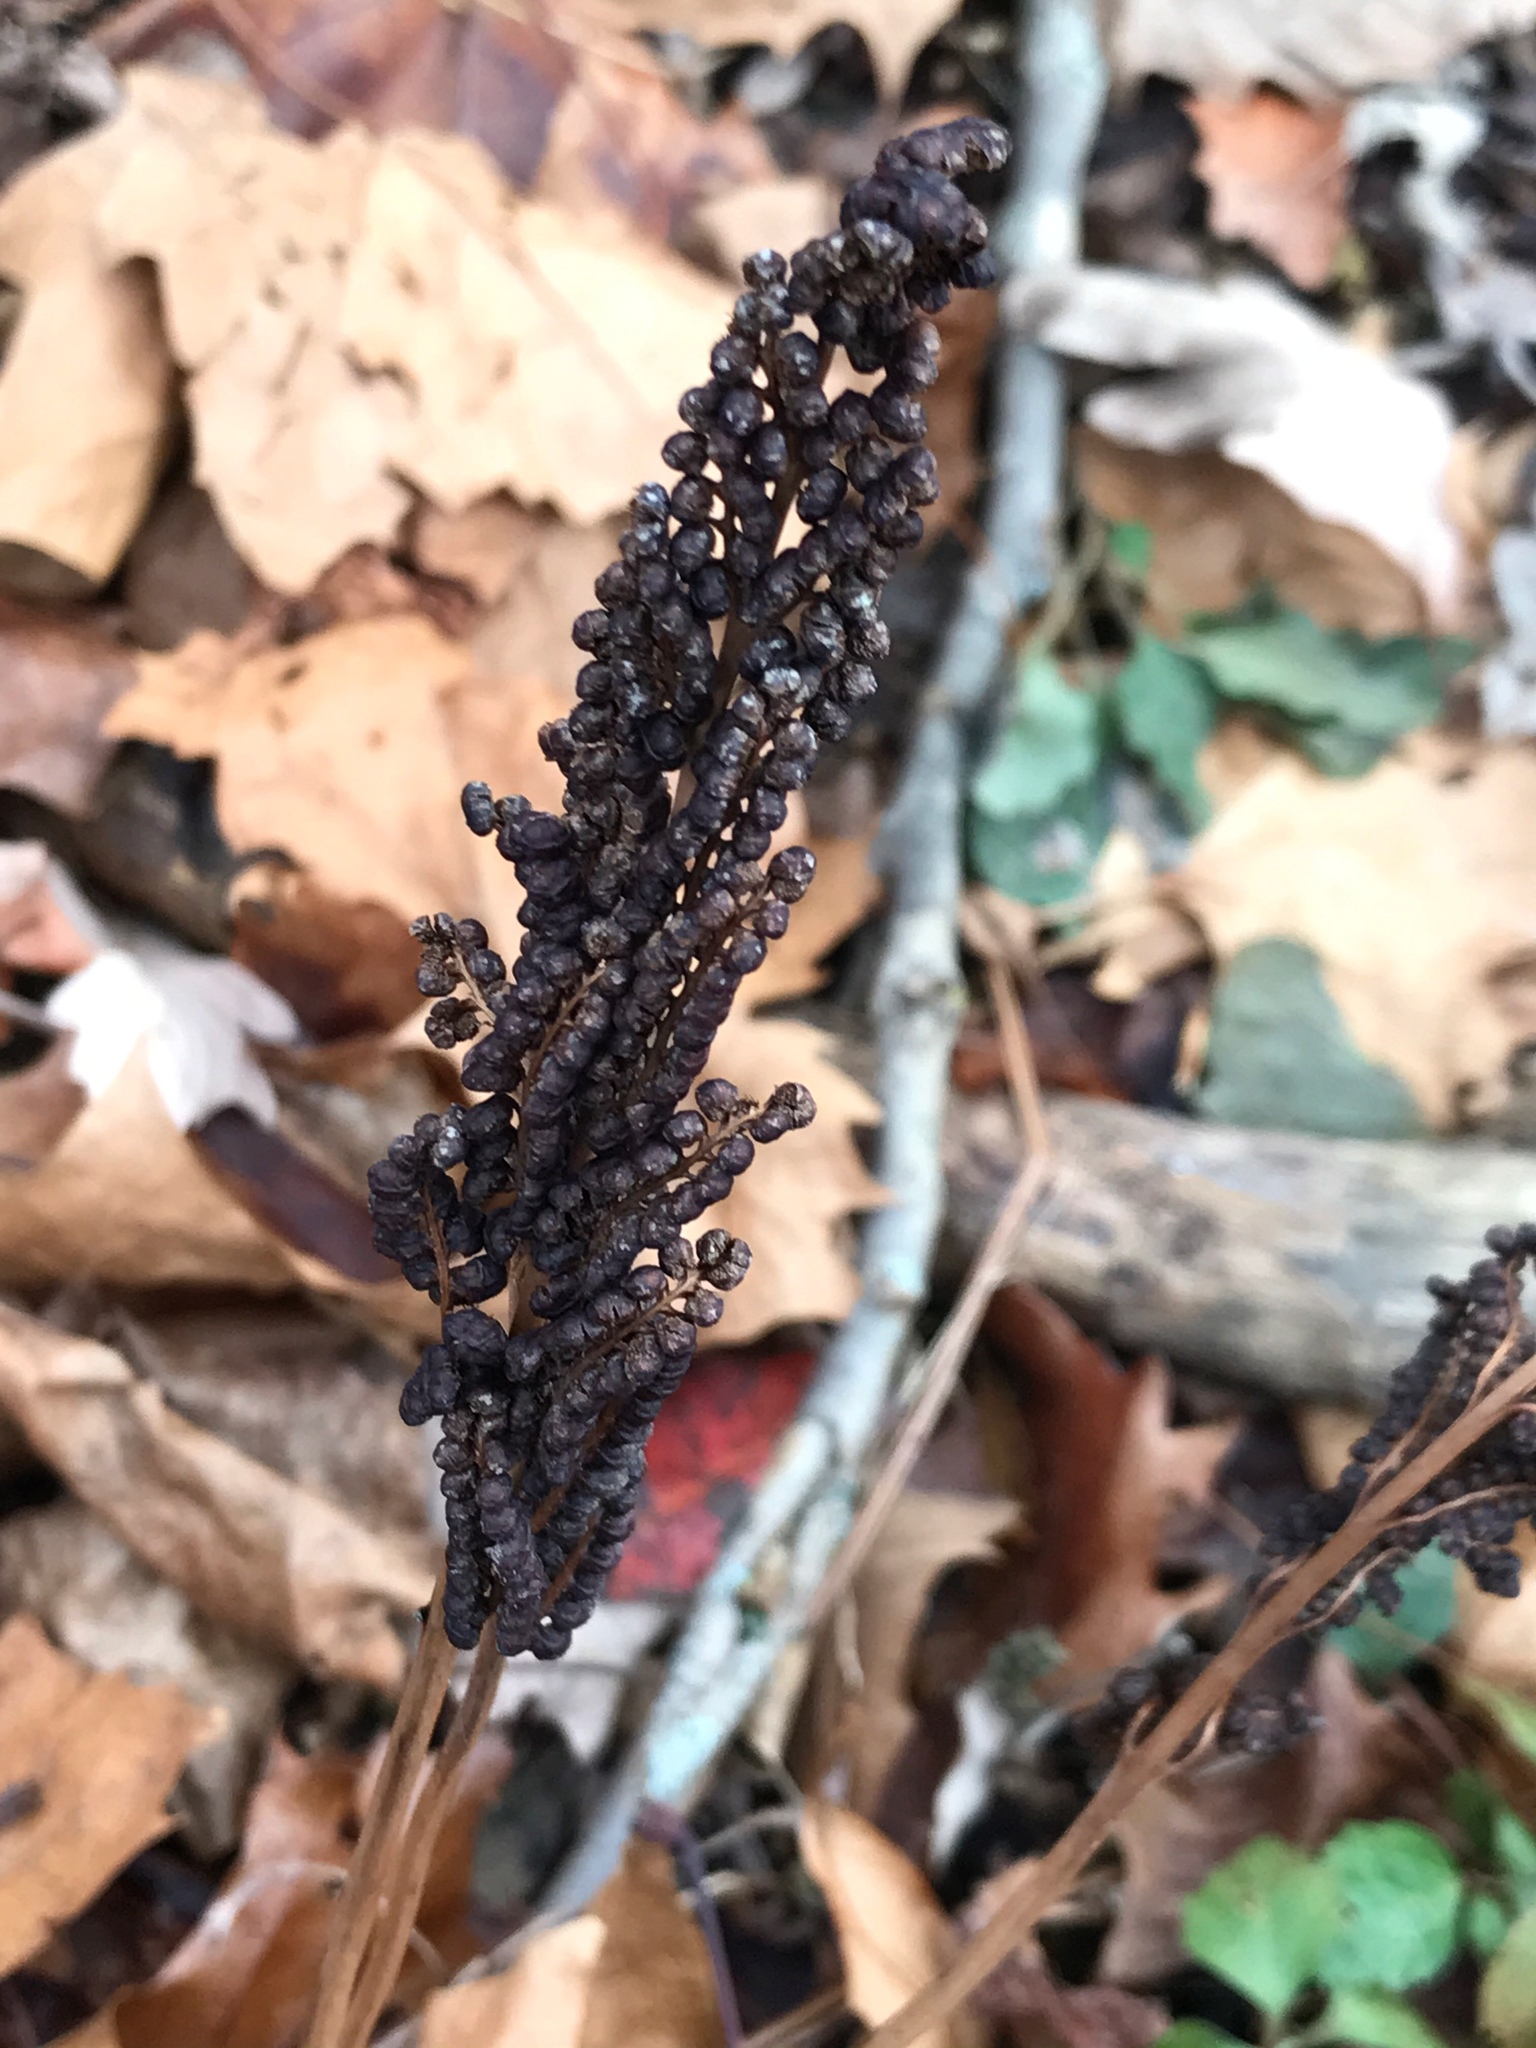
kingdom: Plantae
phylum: Tracheophyta
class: Polypodiopsida
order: Polypodiales
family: Onocleaceae
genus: Onoclea
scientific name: Onoclea sensibilis
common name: Sensitive fern
